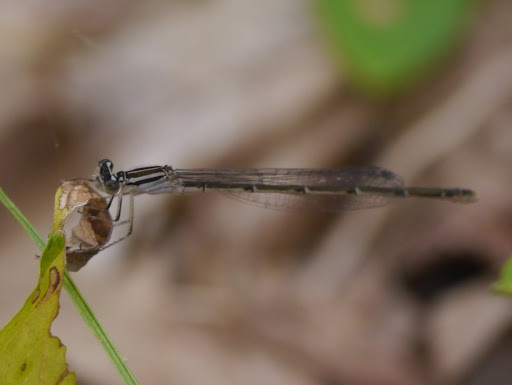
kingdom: Animalia
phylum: Arthropoda
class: Insecta
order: Odonata
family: Coenagrionidae
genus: Enallagma
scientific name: Enallagma durum
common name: Big bluet
